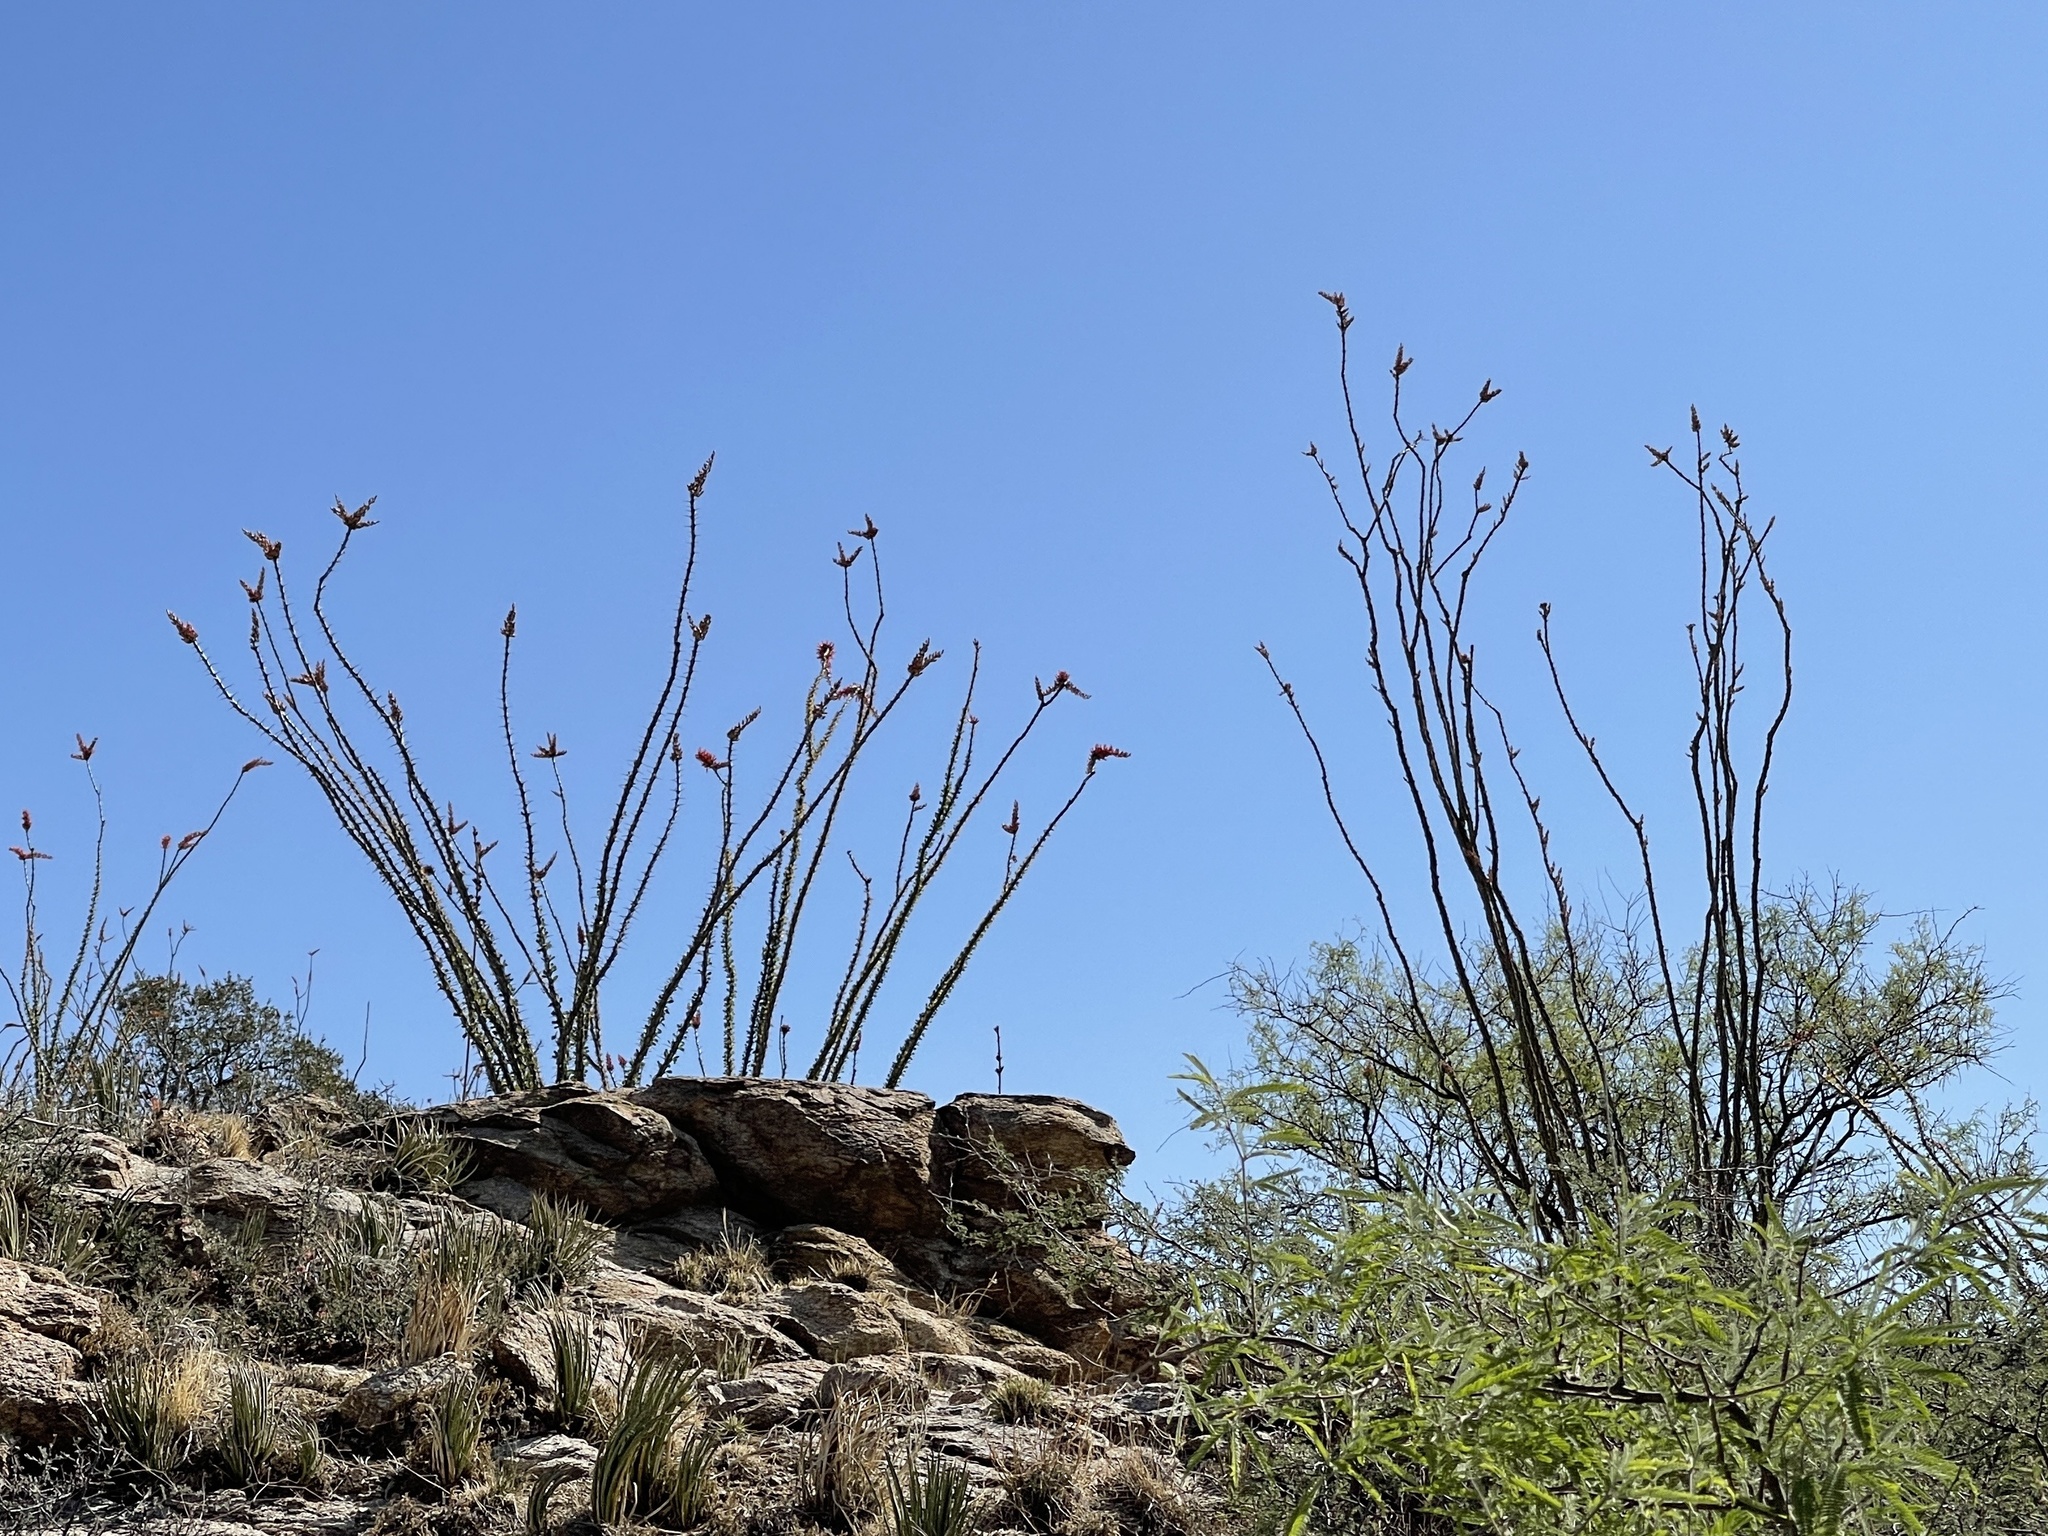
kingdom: Plantae
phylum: Tracheophyta
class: Magnoliopsida
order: Ericales
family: Fouquieriaceae
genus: Fouquieria
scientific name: Fouquieria splendens
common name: Vine-cactus
